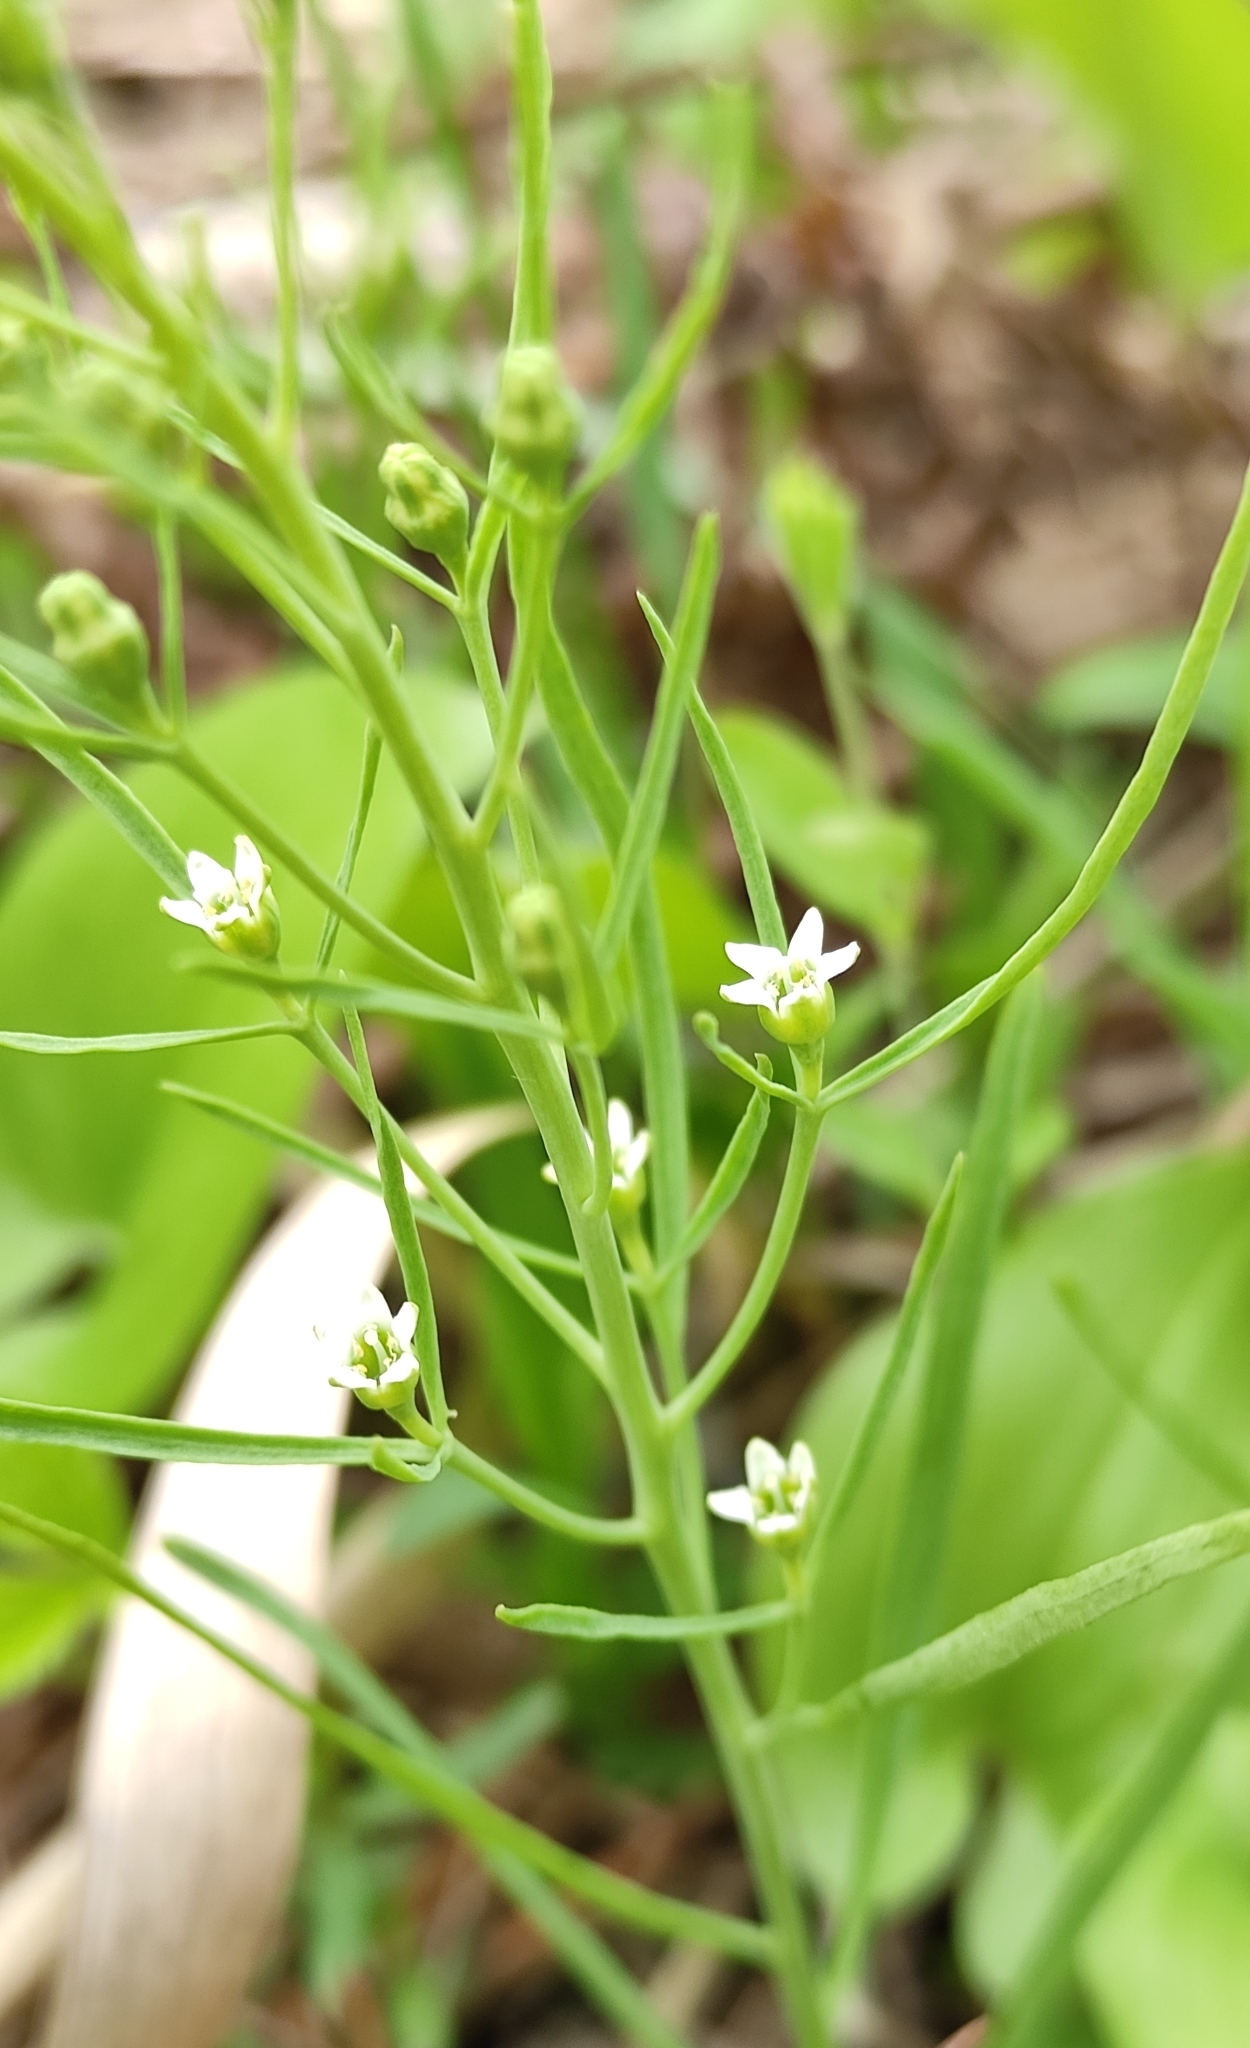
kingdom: Plantae
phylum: Tracheophyta
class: Magnoliopsida
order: Santalales
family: Thesiaceae
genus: Thesium
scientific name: Thesium repens
